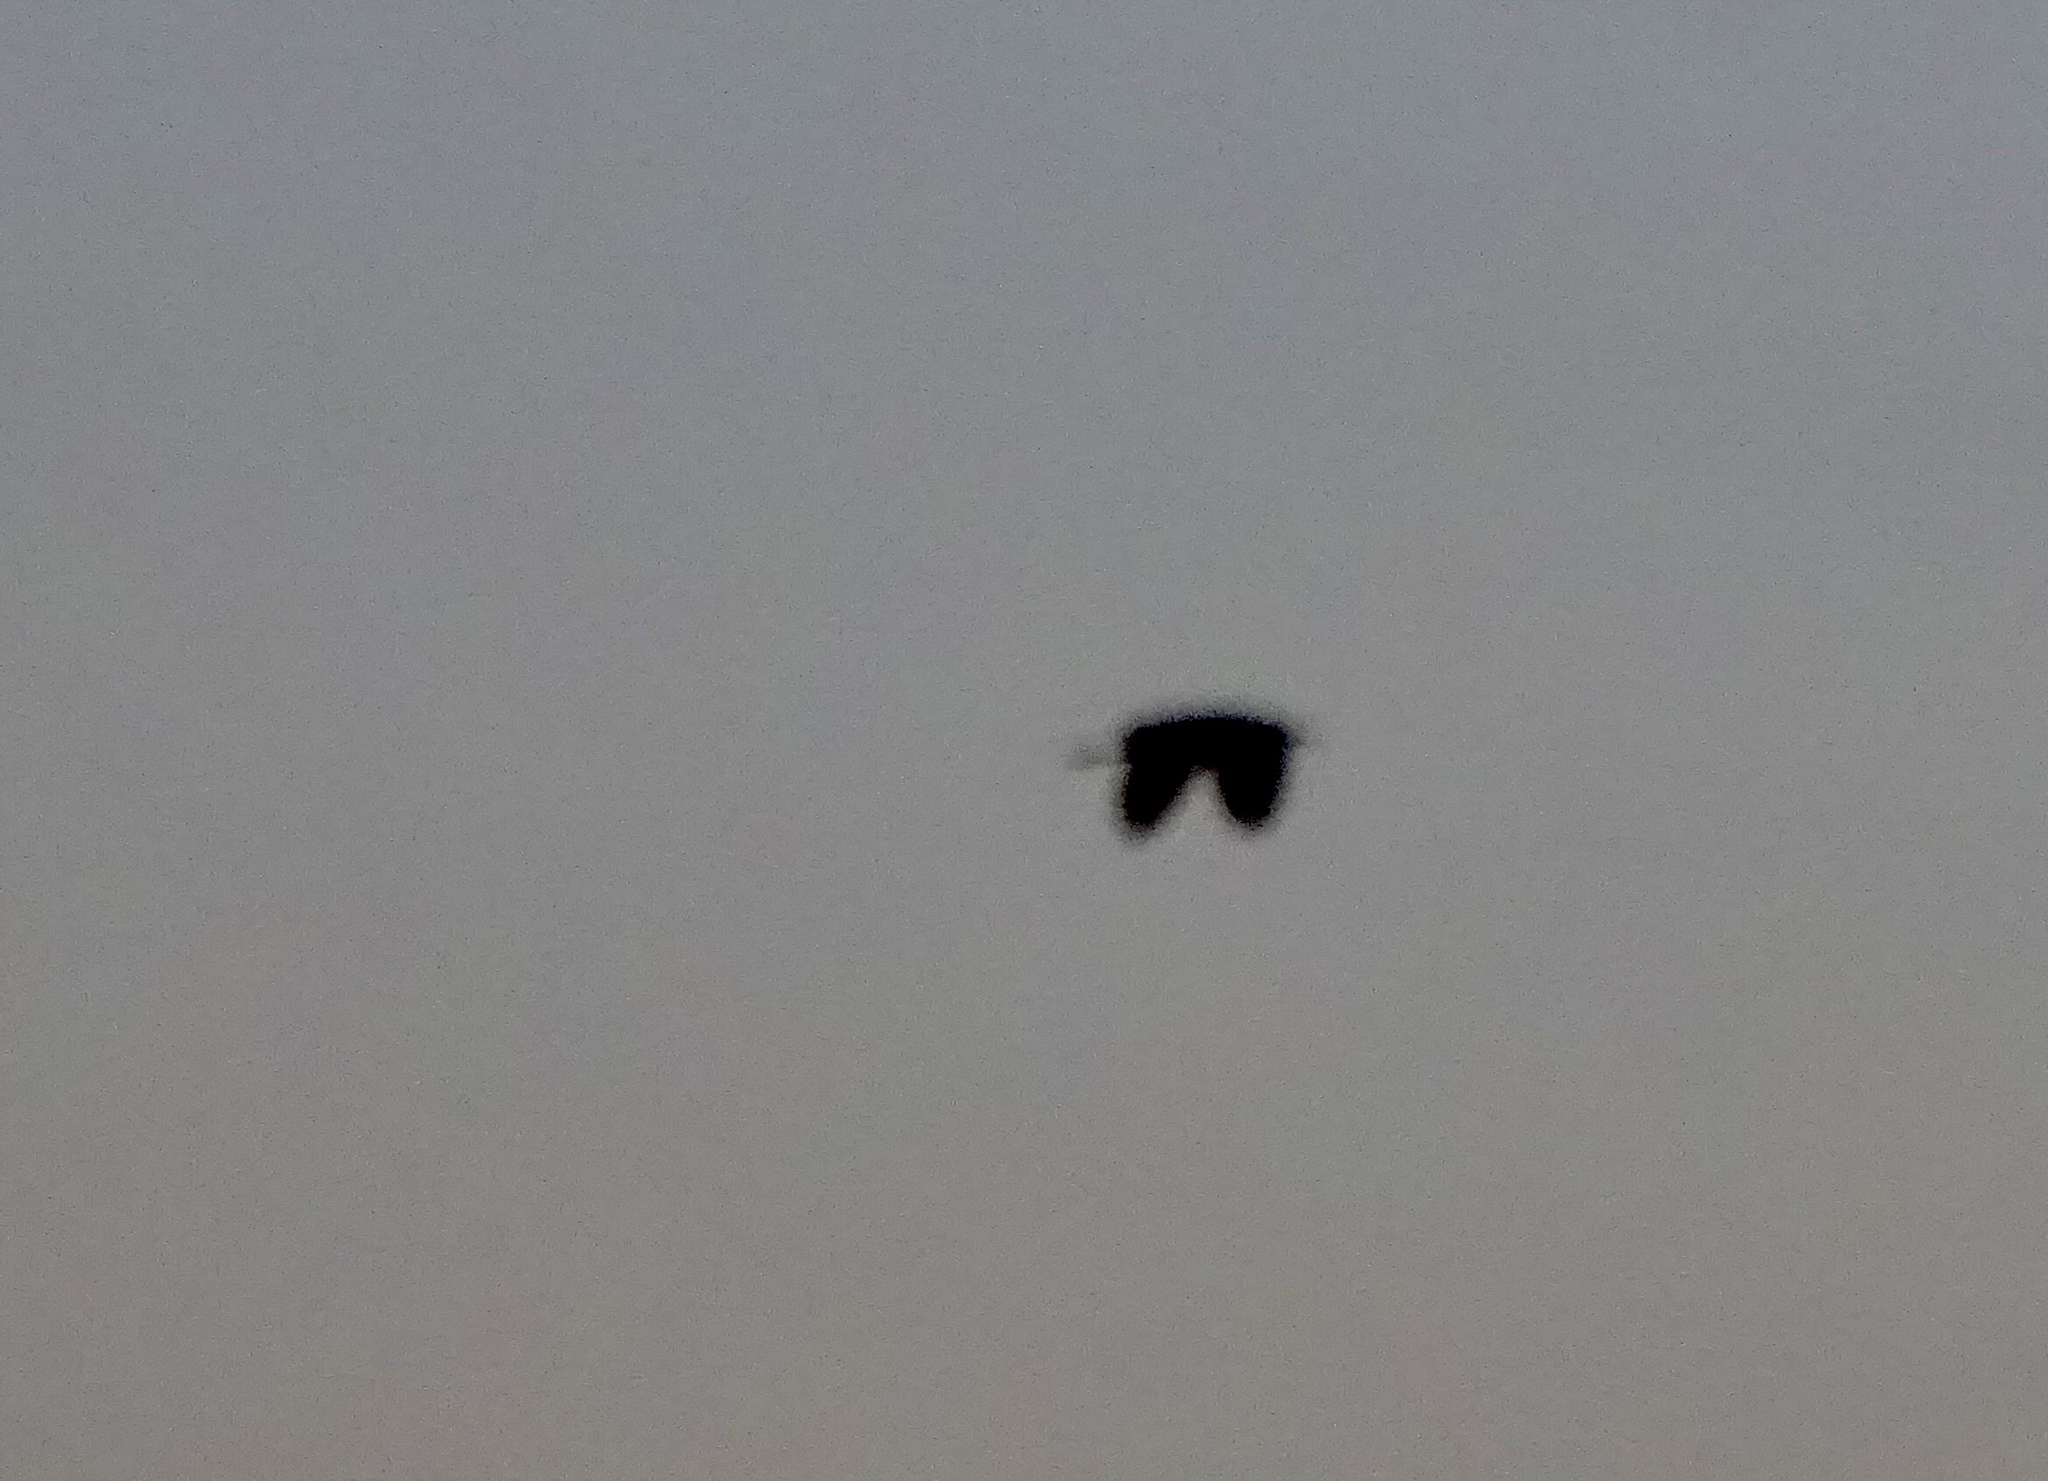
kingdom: Animalia
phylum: Chordata
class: Aves
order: Pelecaniformes
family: Ardeidae
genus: Ardea
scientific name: Ardea herodias
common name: Great blue heron
